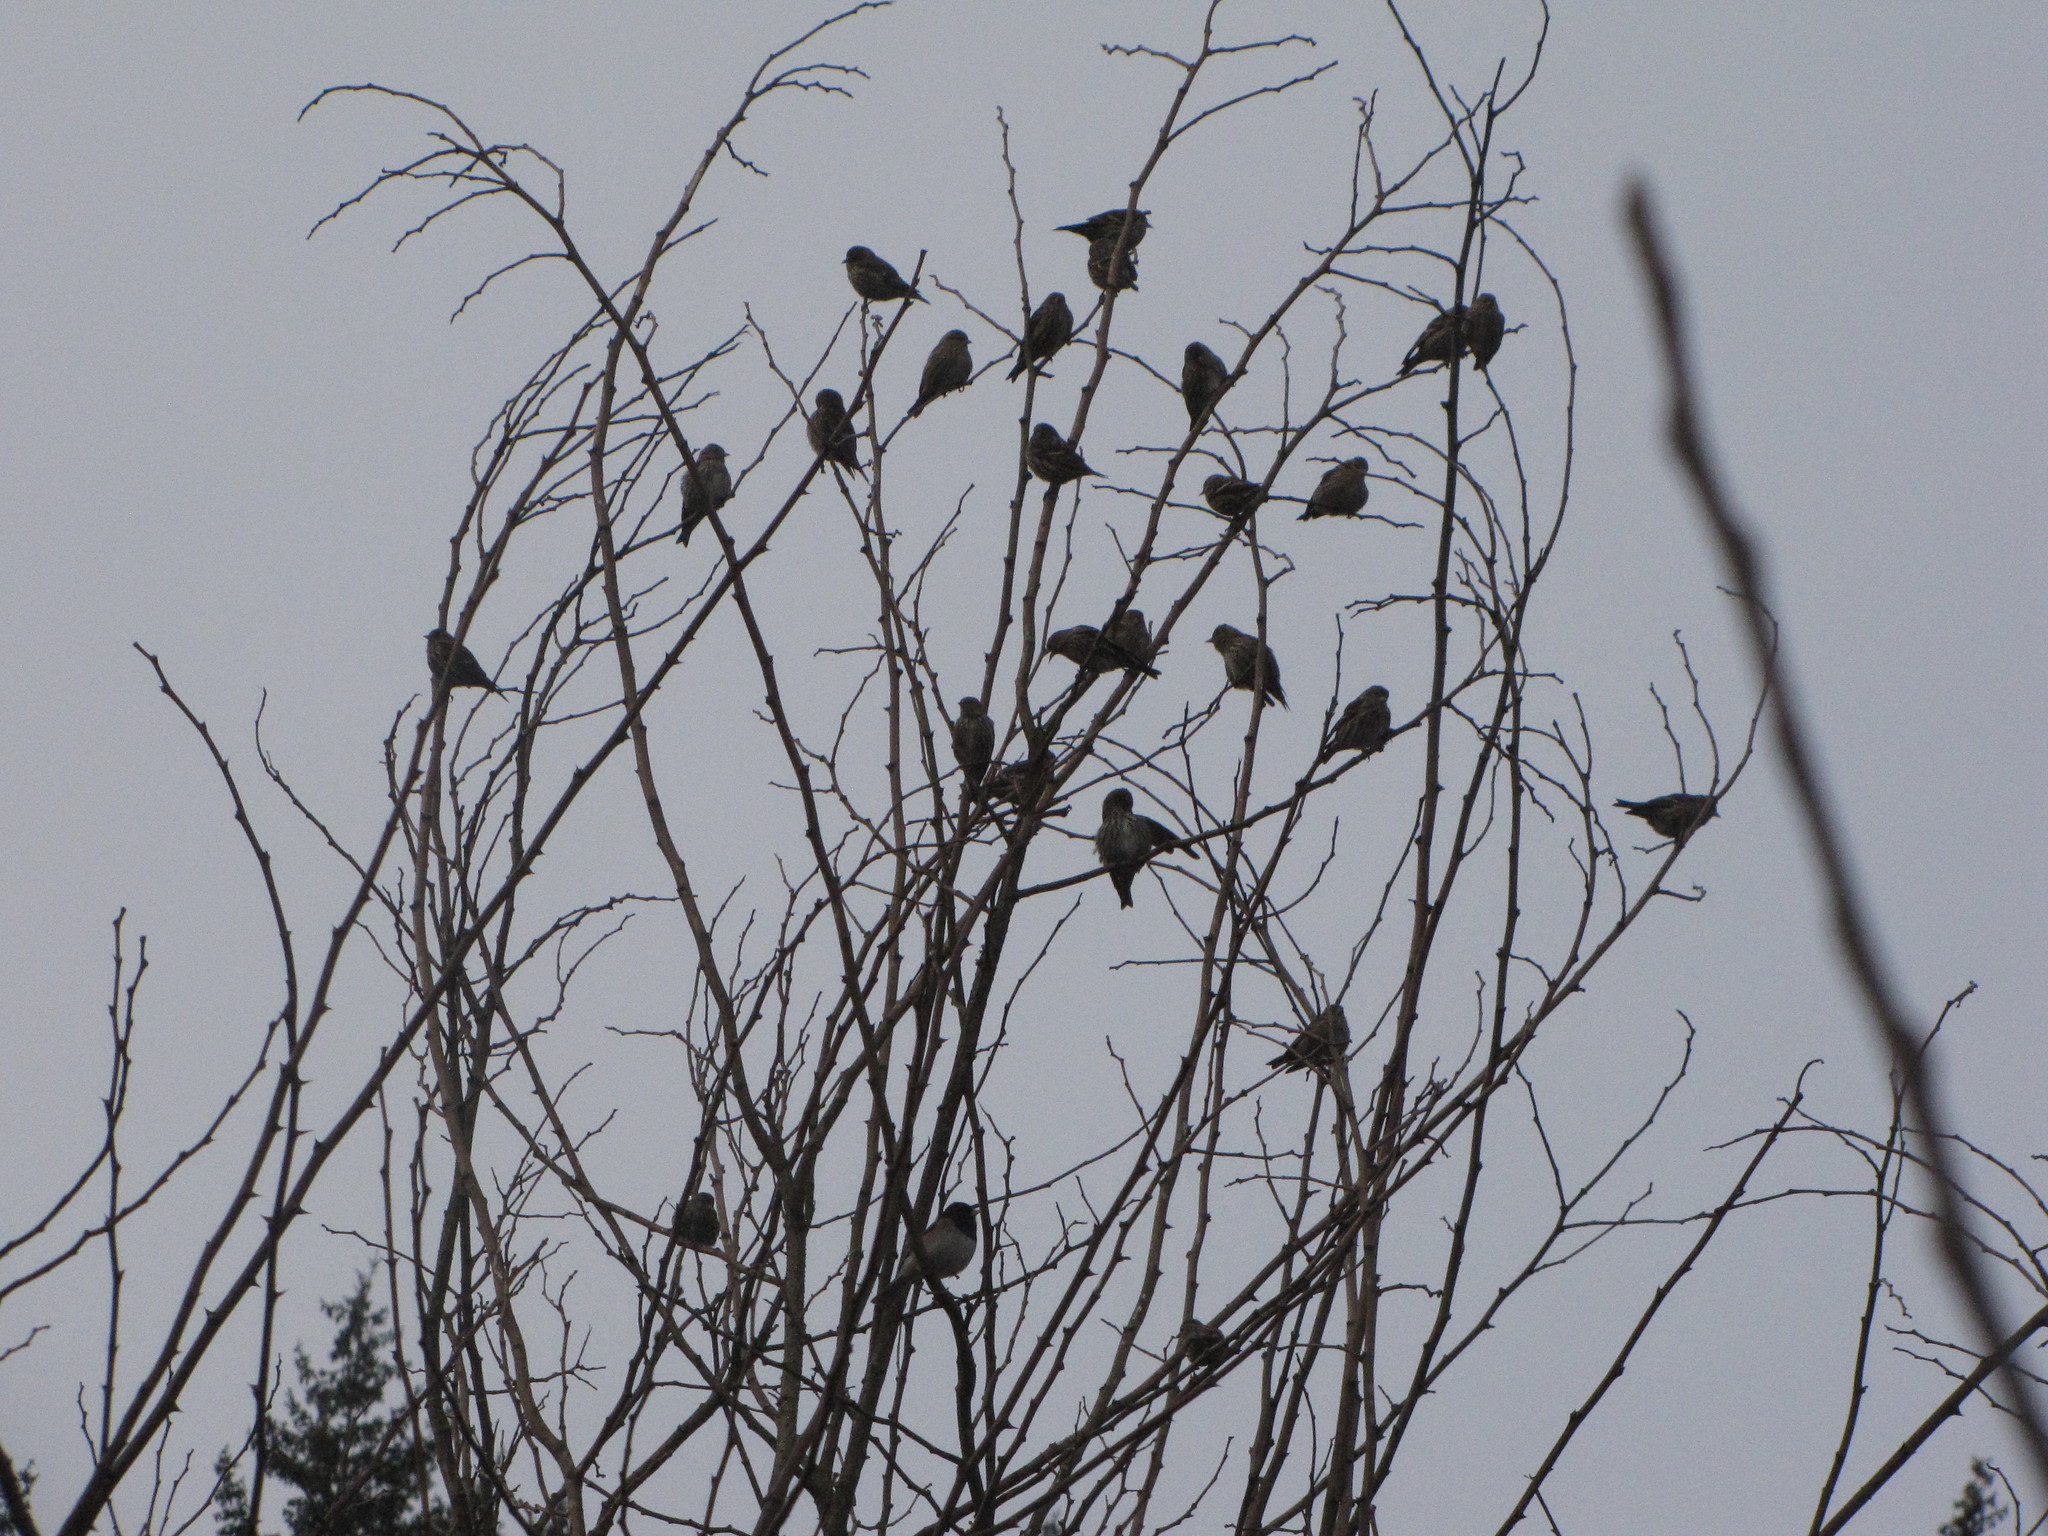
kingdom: Animalia
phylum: Chordata
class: Aves
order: Passeriformes
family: Fringillidae
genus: Spinus
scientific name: Spinus pinus
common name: Pine siskin
